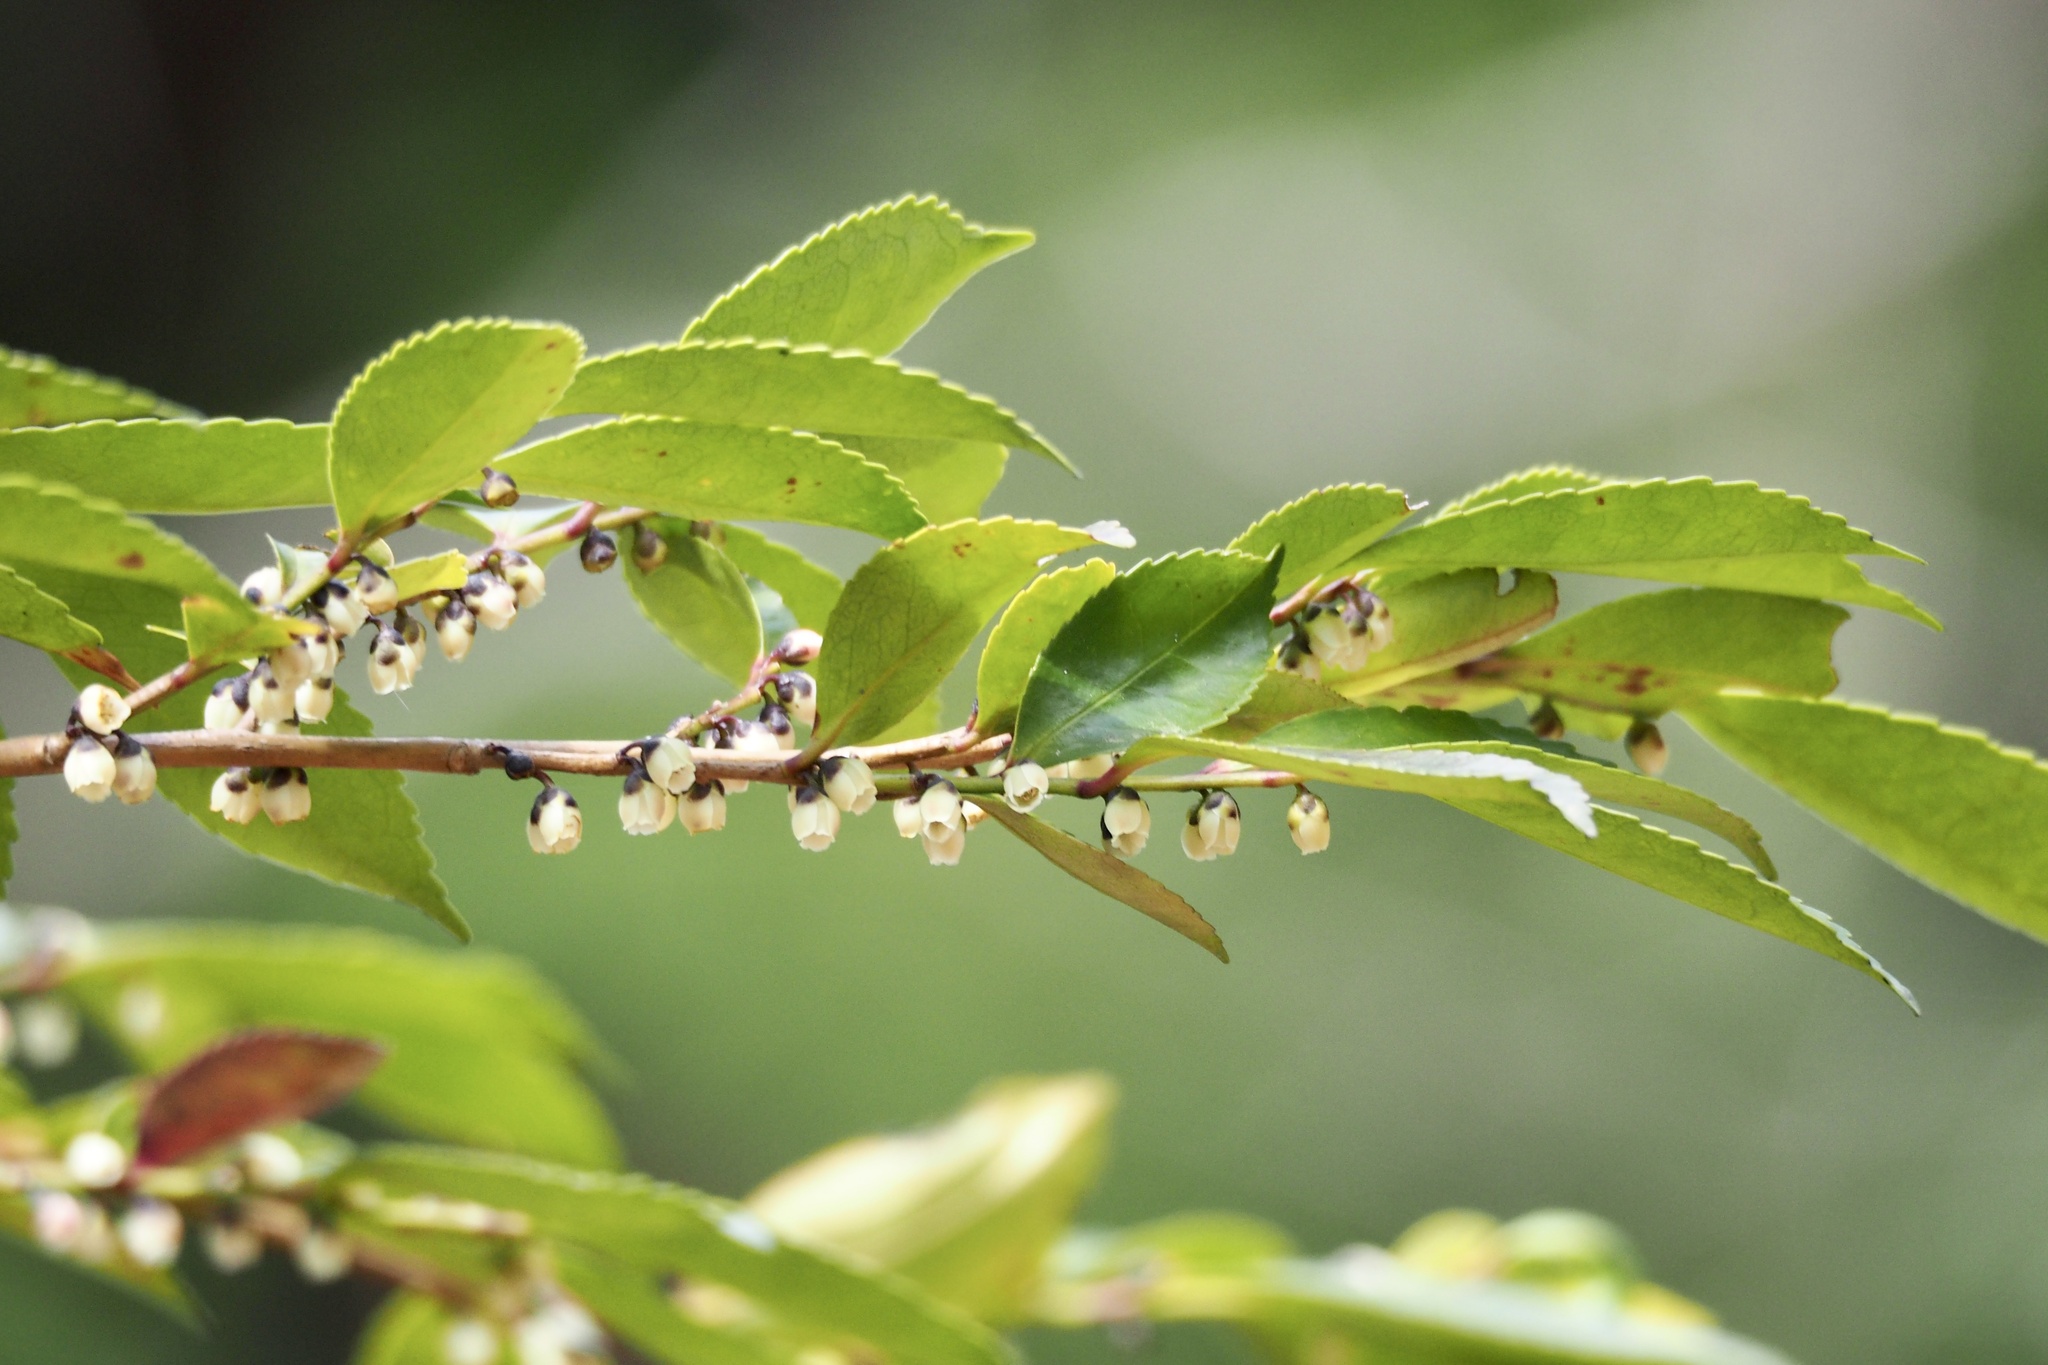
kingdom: Plantae
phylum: Tracheophyta
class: Magnoliopsida
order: Ericales
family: Pentaphylacaceae
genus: Eurya
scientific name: Eurya japonica
